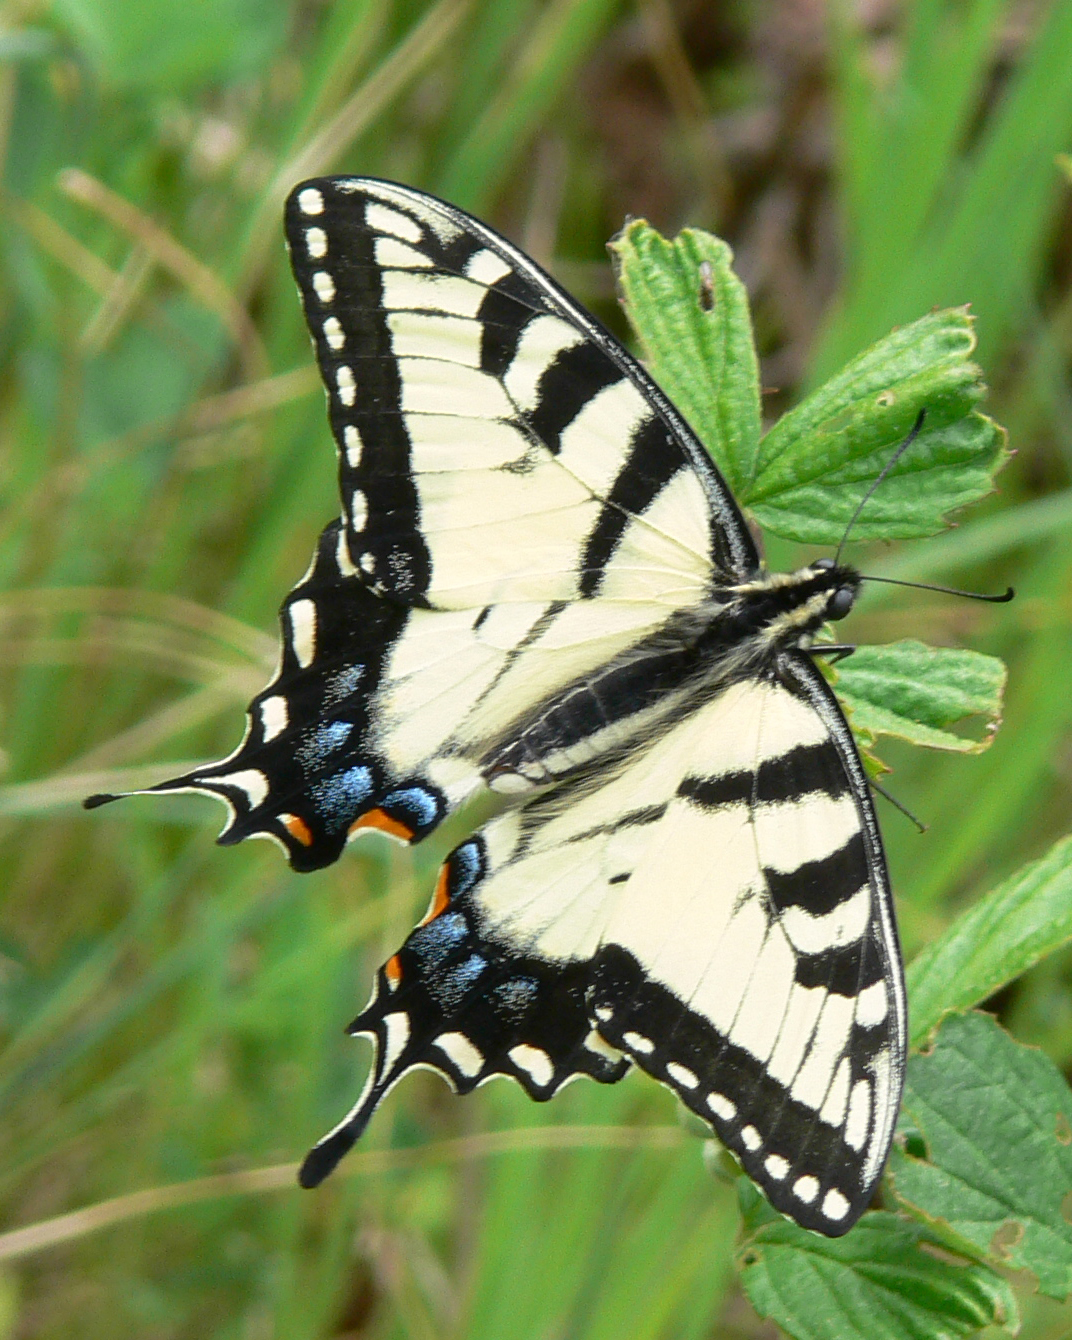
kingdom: Animalia
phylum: Arthropoda
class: Insecta
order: Lepidoptera
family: Papilionidae
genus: Papilio
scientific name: Papilio glaucus
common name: Tiger swallowtail
